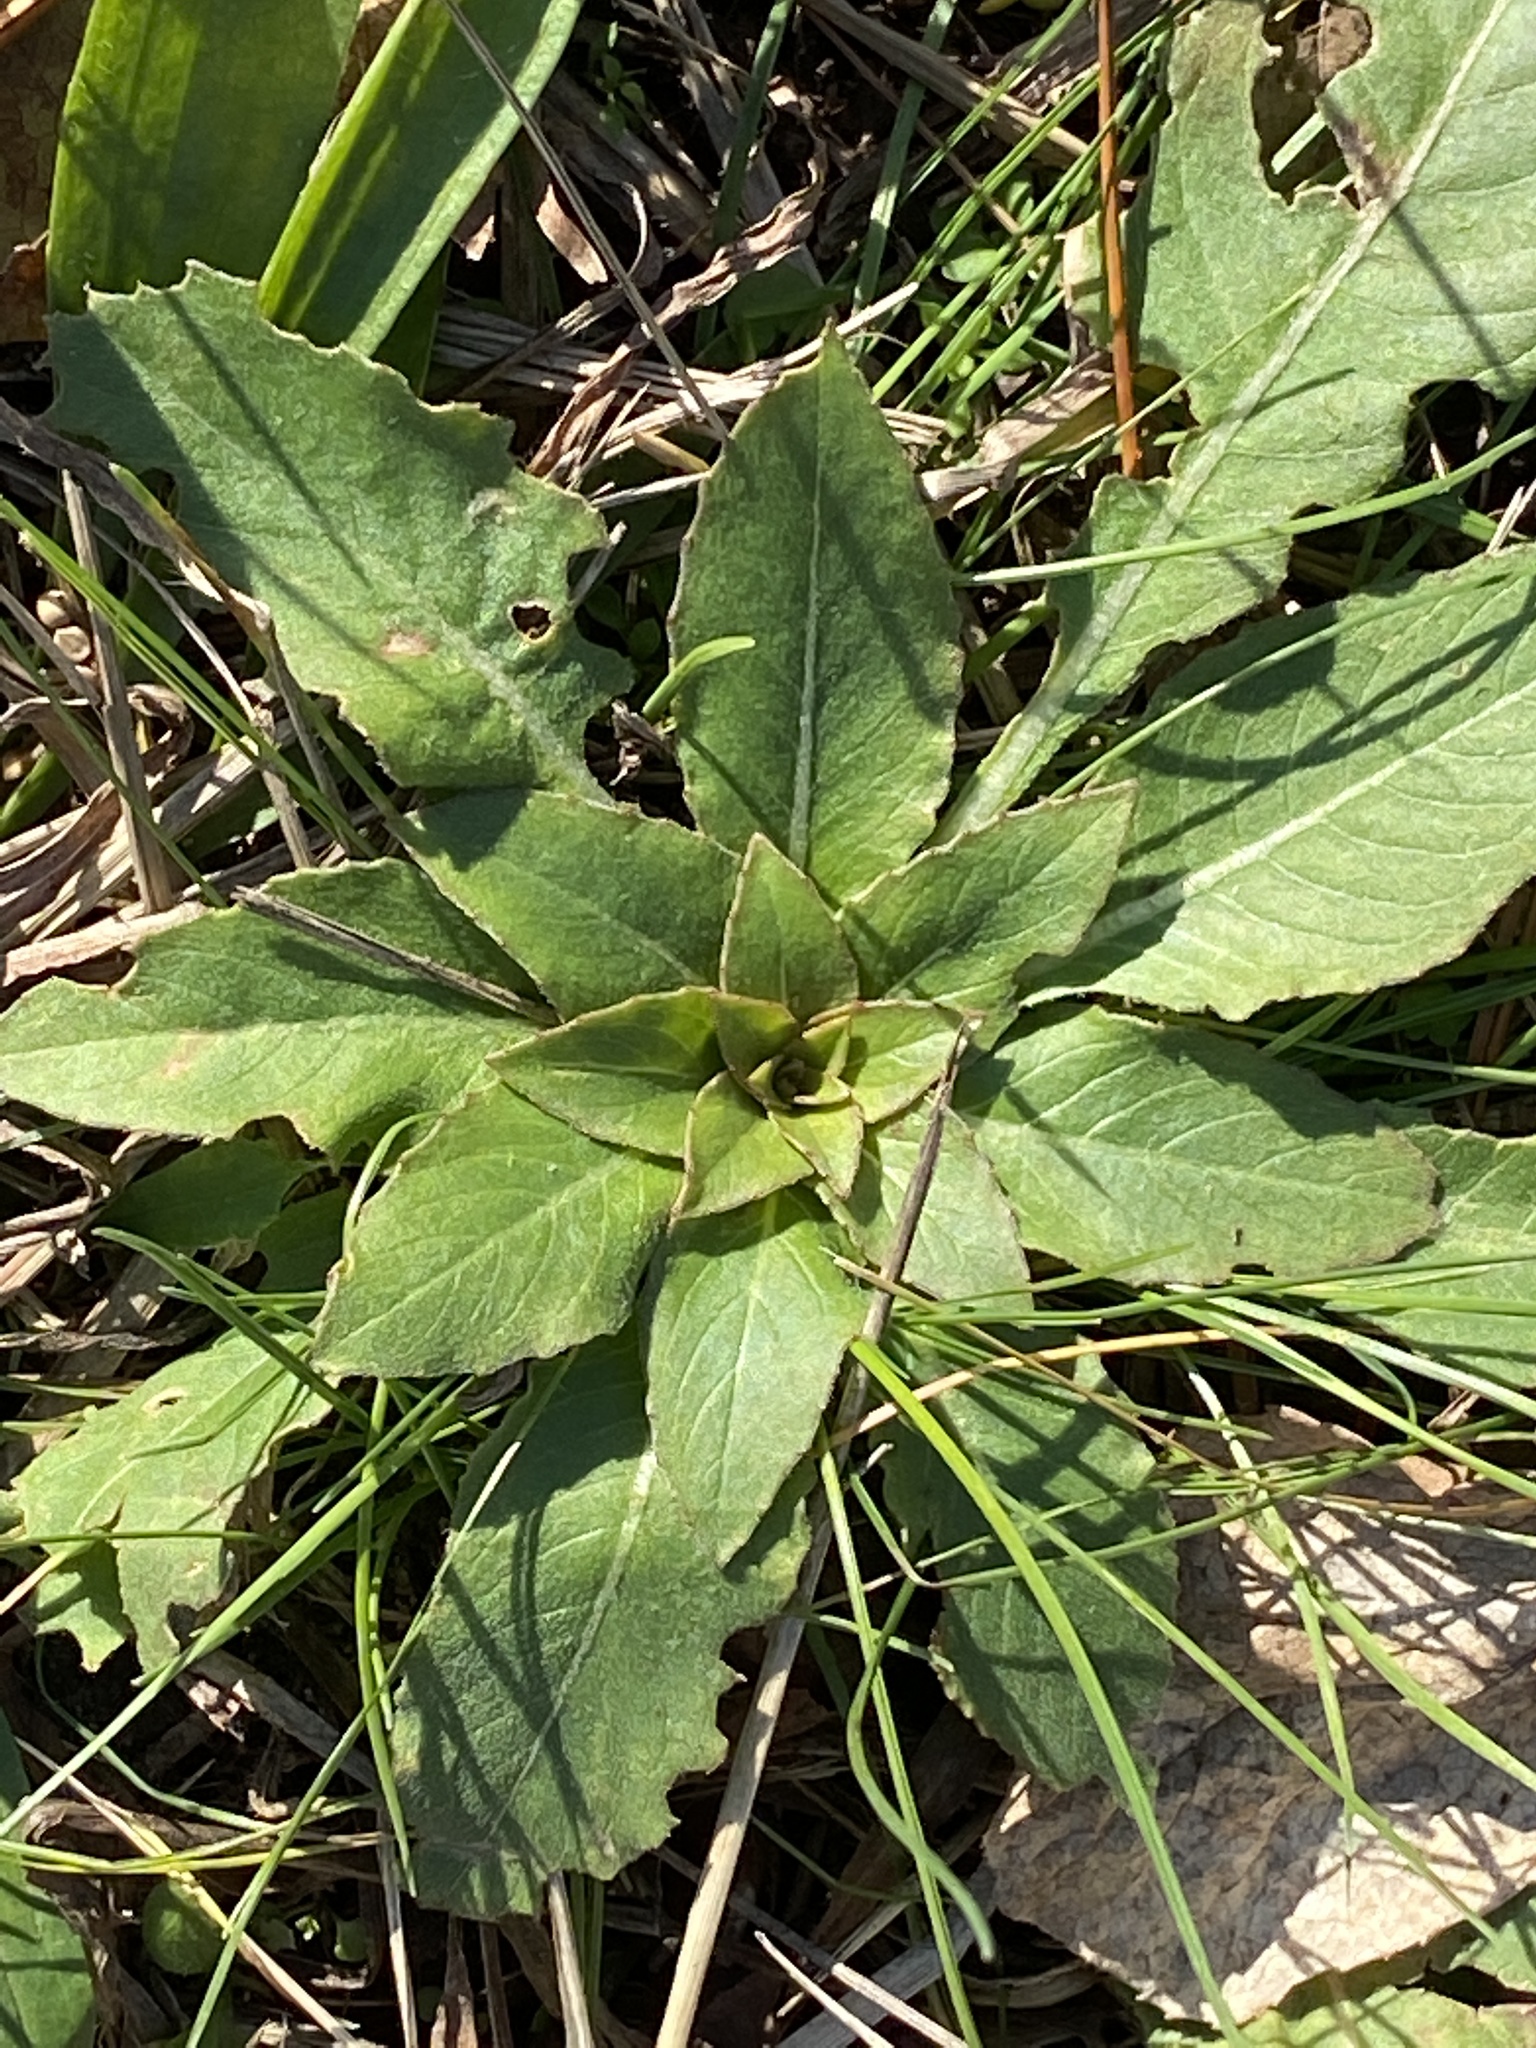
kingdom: Plantae
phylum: Tracheophyta
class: Magnoliopsida
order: Myrtales
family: Onagraceae
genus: Oenothera
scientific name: Oenothera biennis
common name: Common evening-primrose
